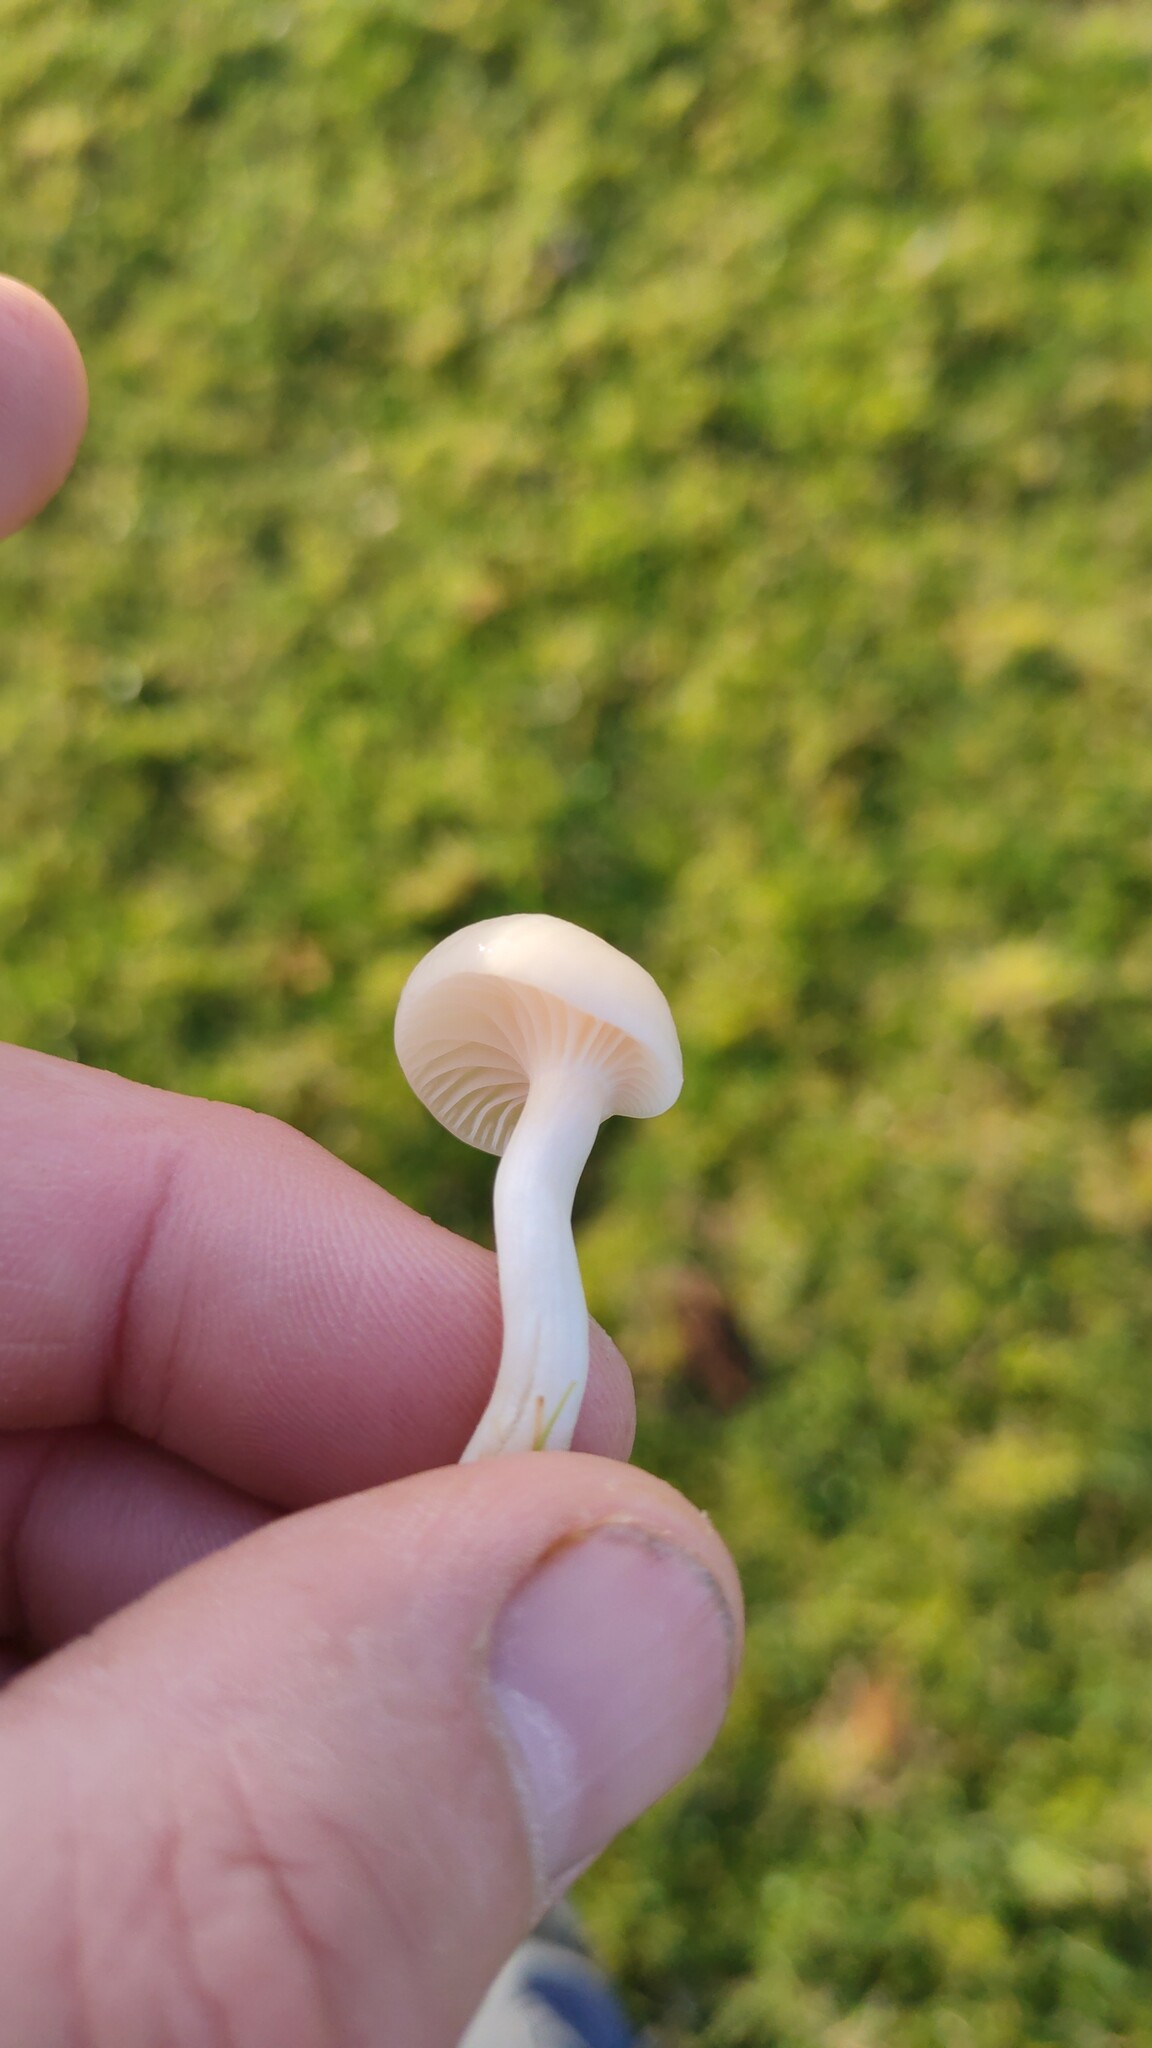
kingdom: Fungi
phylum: Basidiomycota
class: Agaricomycetes
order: Agaricales
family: Hygrophoraceae
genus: Cuphophyllus
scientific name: Cuphophyllus virgineus
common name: Snowy waxcap
